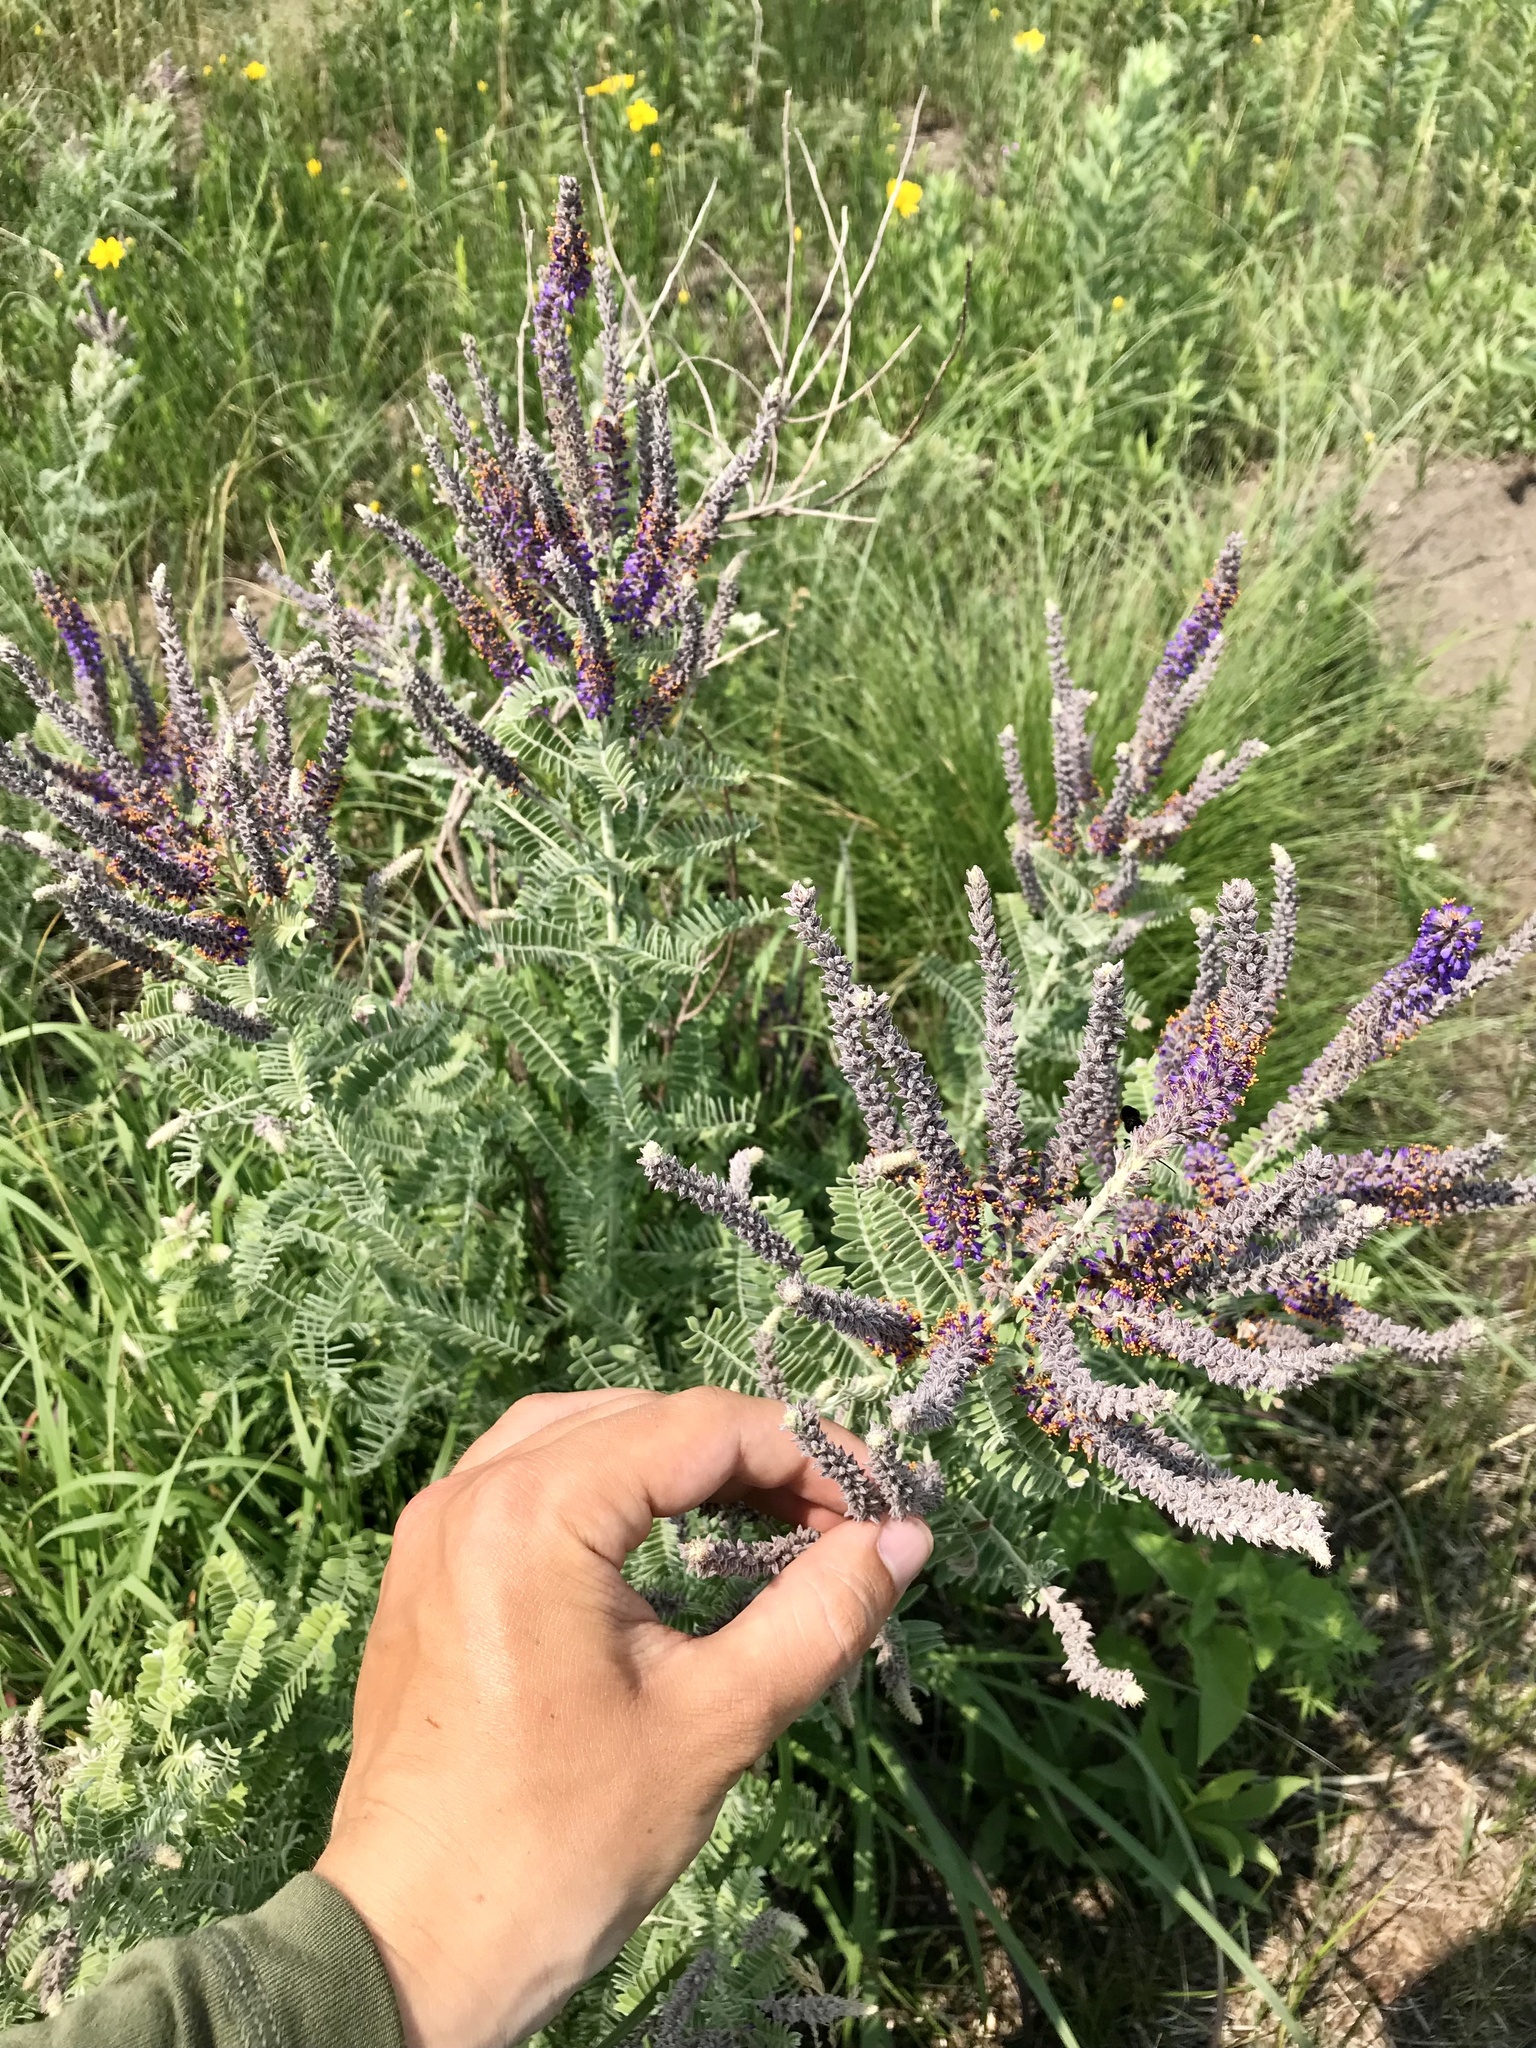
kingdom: Plantae
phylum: Tracheophyta
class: Magnoliopsida
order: Fabales
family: Fabaceae
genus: Amorpha
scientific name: Amorpha canescens
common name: Leadplant
